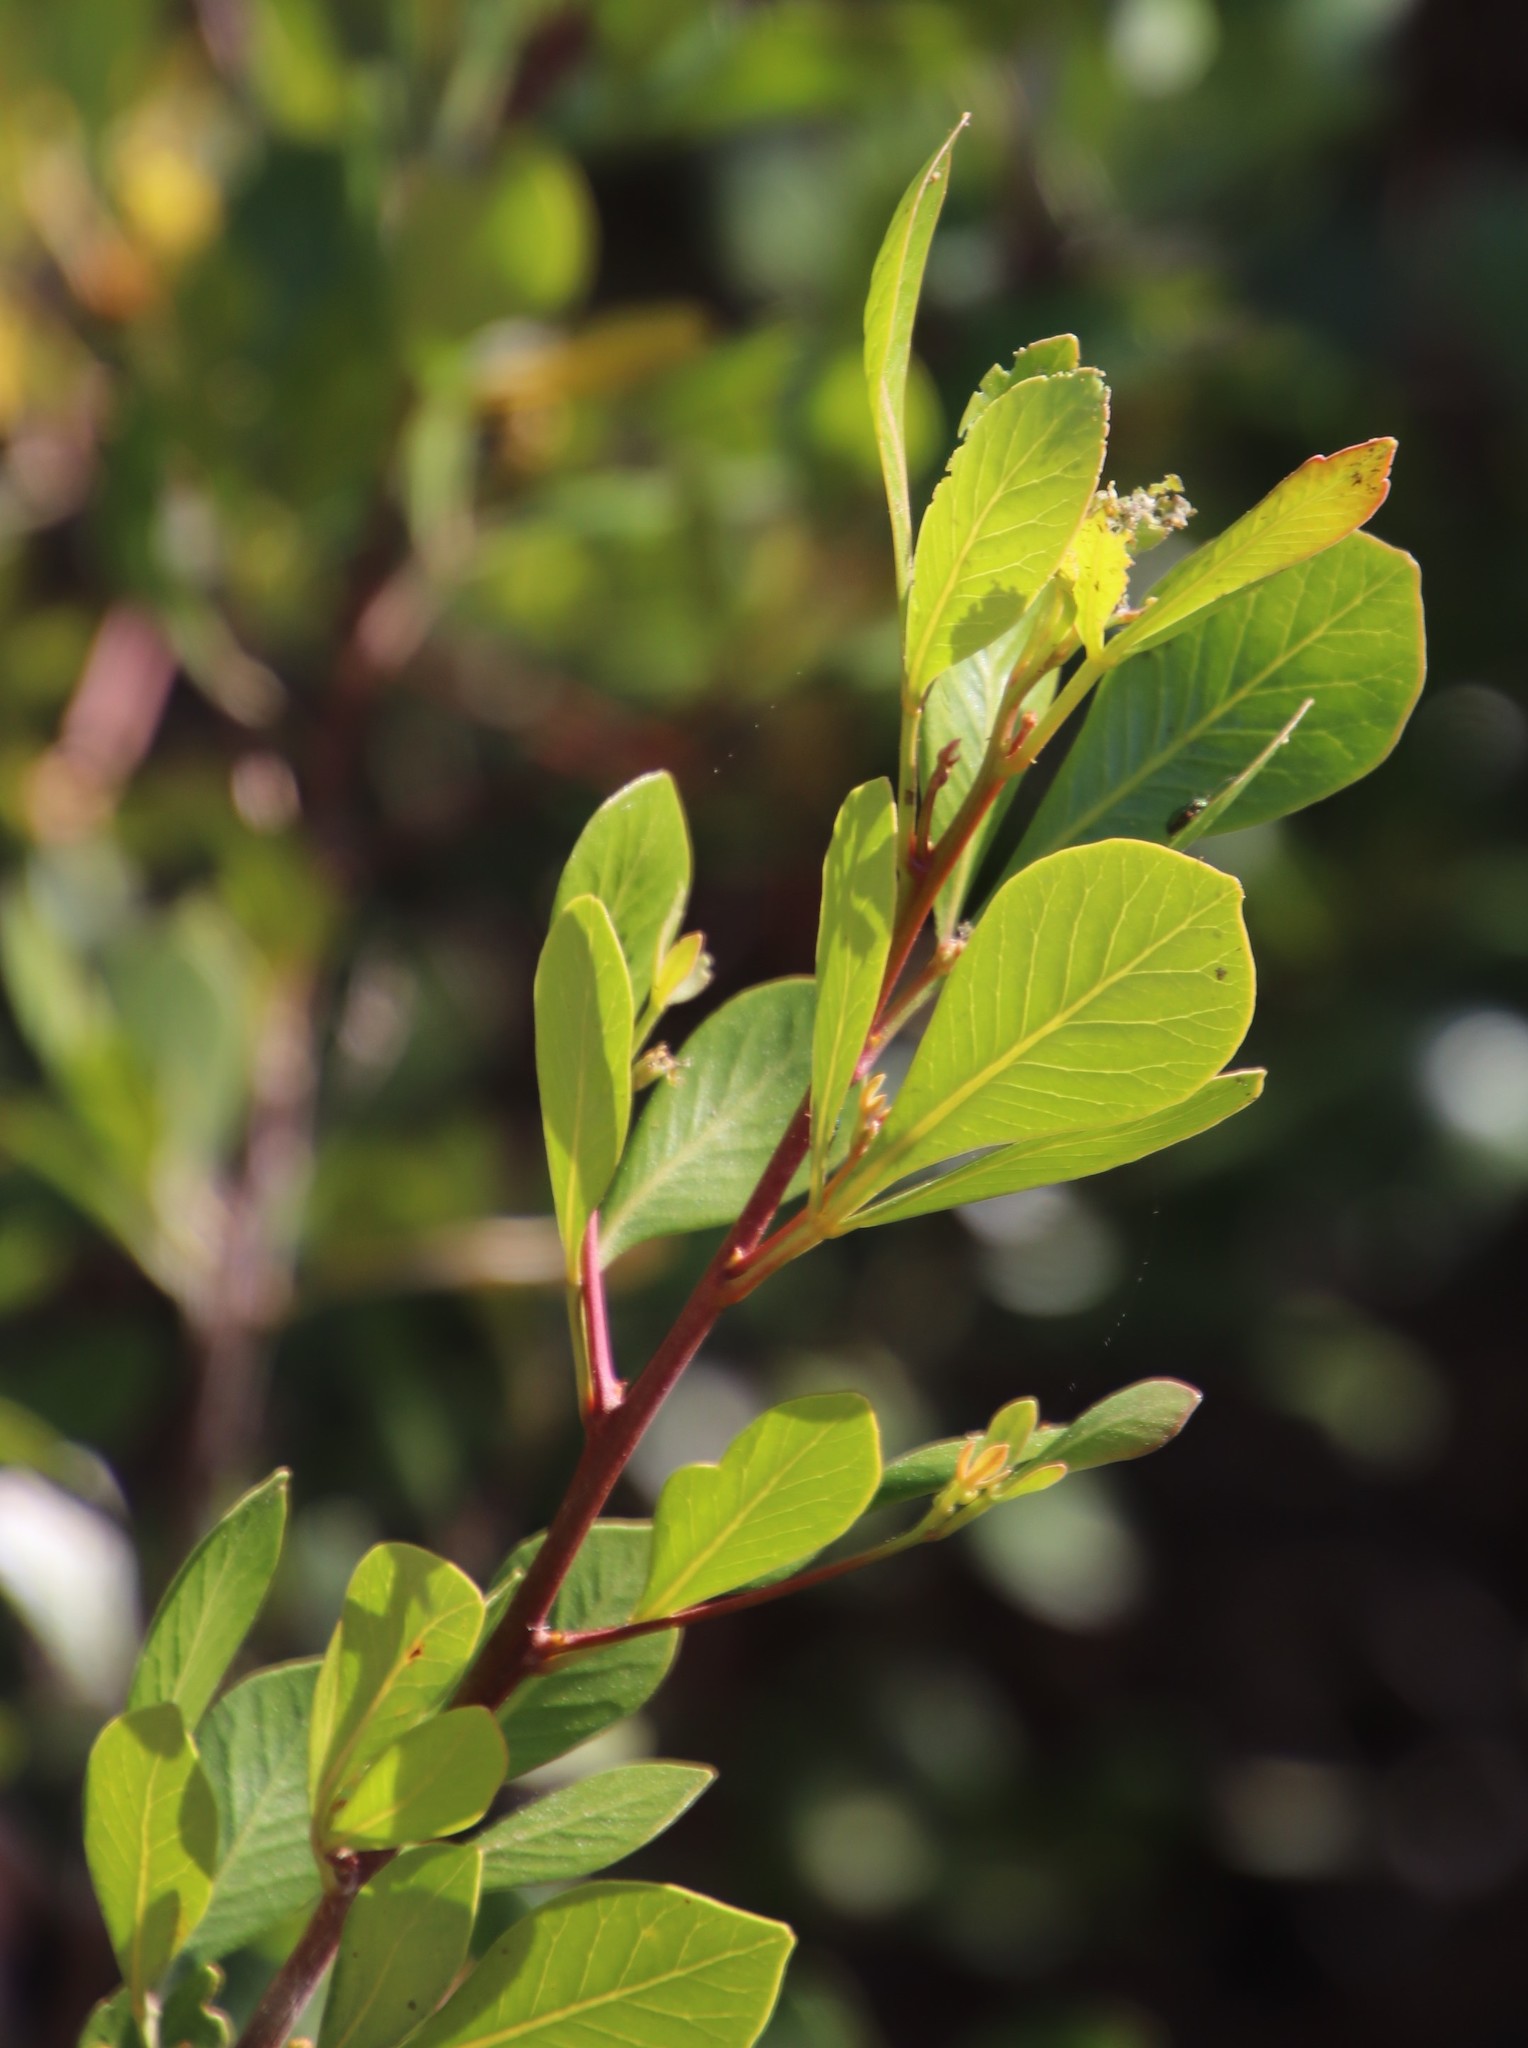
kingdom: Plantae
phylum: Tracheophyta
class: Magnoliopsida
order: Sapindales
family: Anacardiaceae
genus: Searsia
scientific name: Searsia lucida
